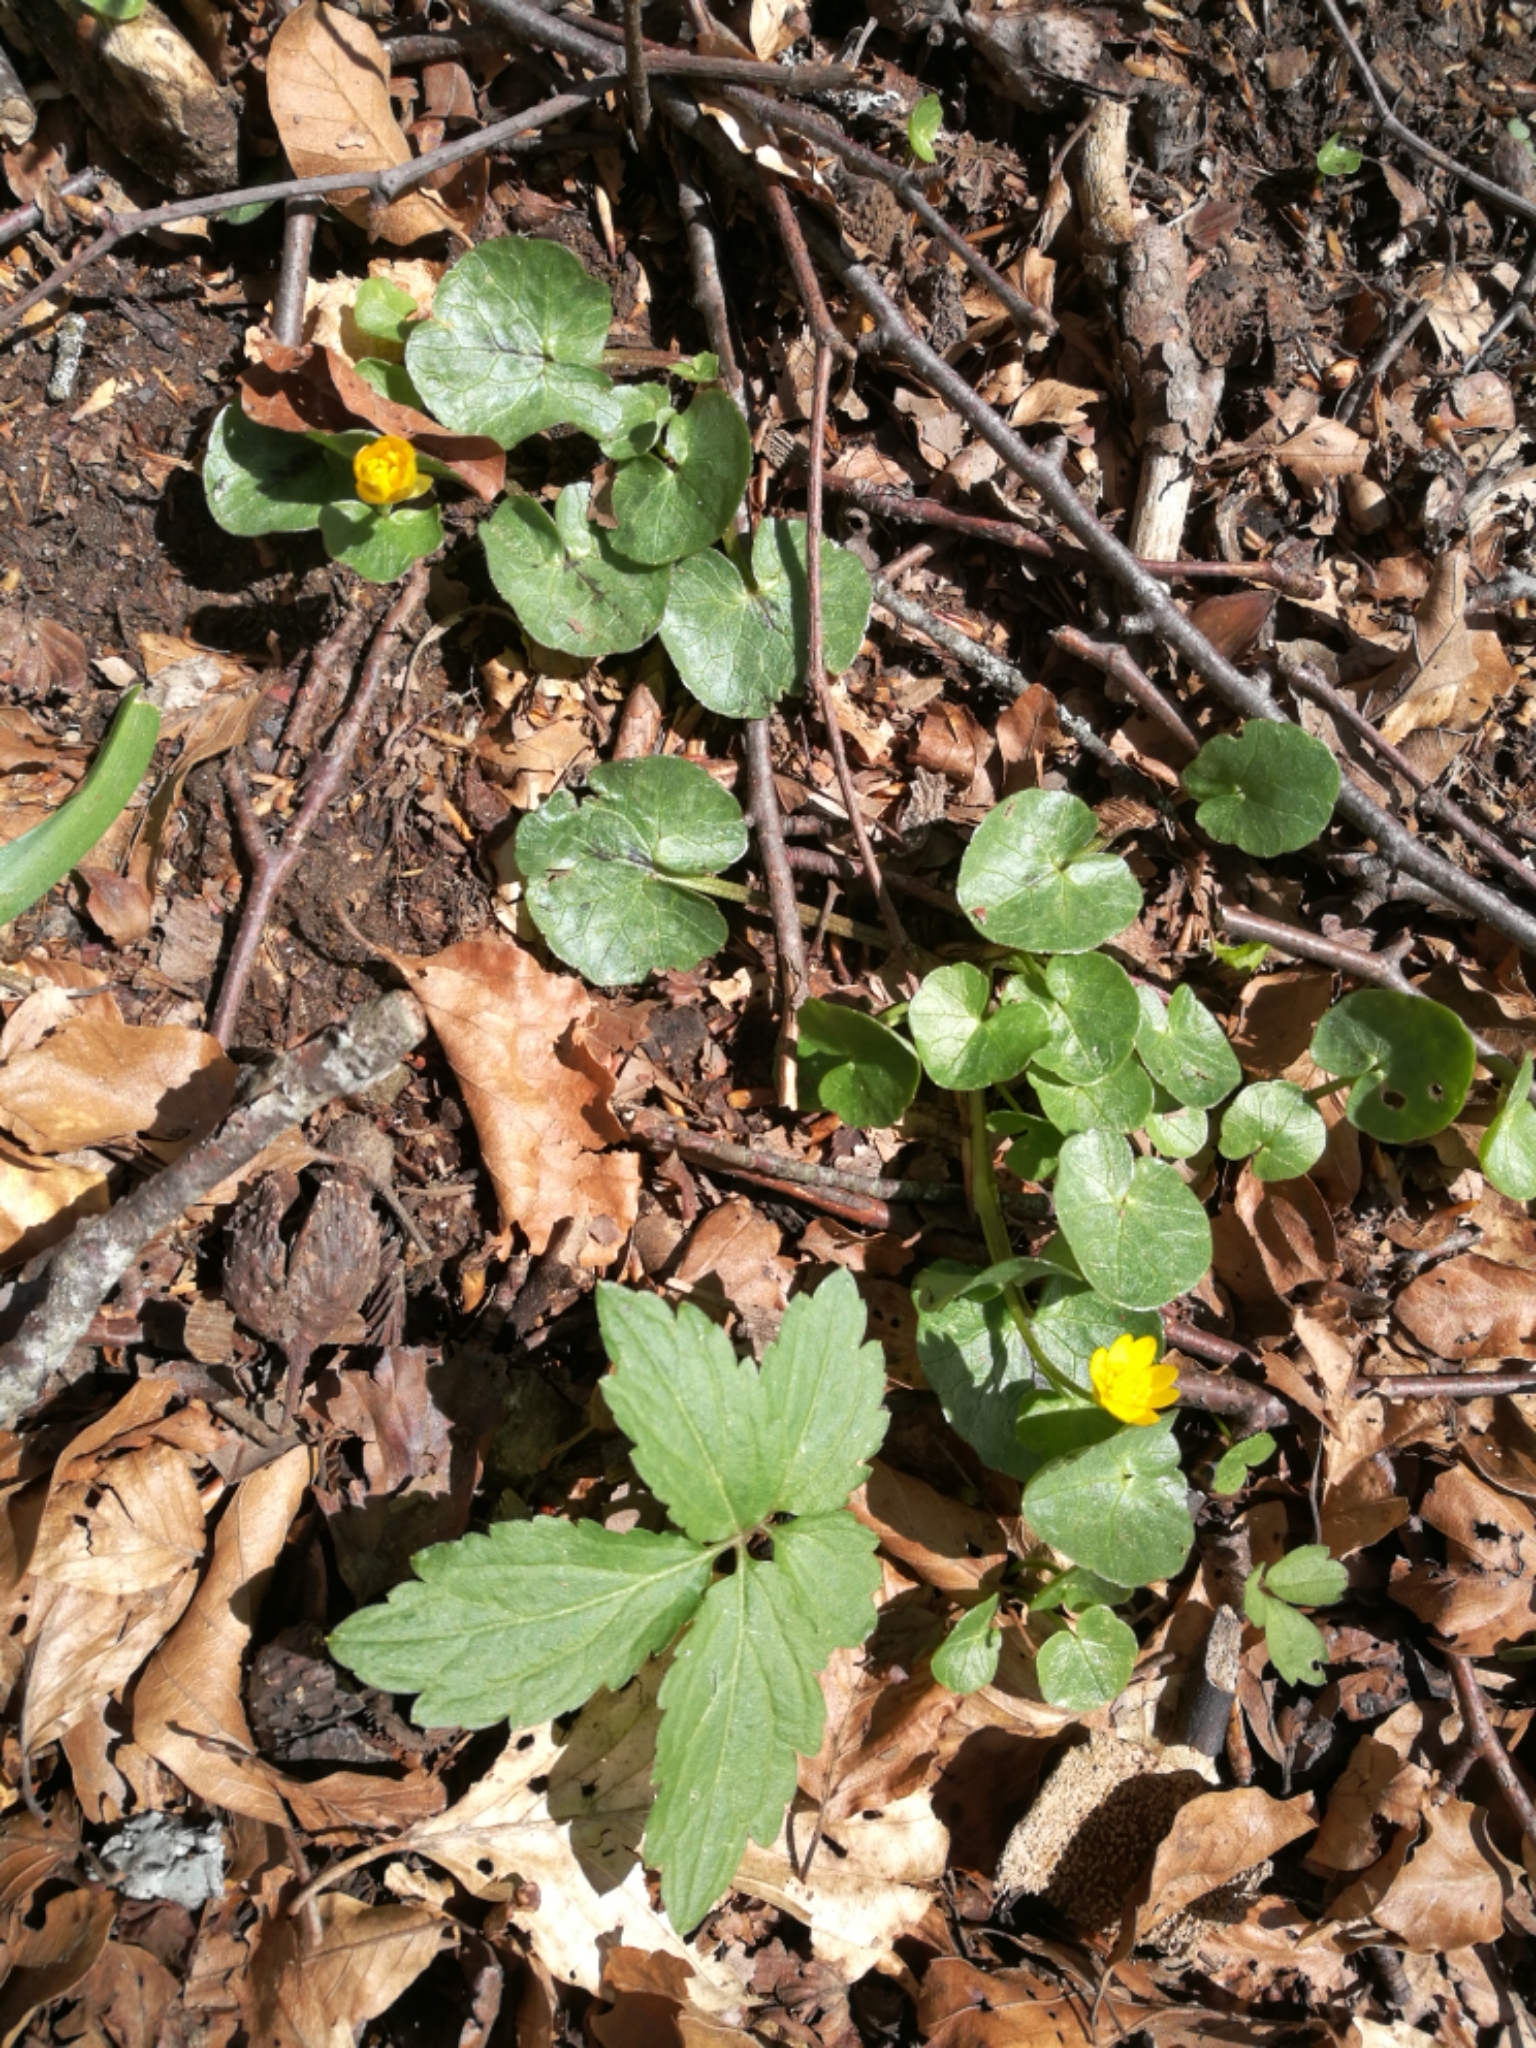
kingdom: Plantae
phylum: Tracheophyta
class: Magnoliopsida
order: Ranunculales
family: Ranunculaceae
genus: Ficaria
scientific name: Ficaria verna
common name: Lesser celandine
